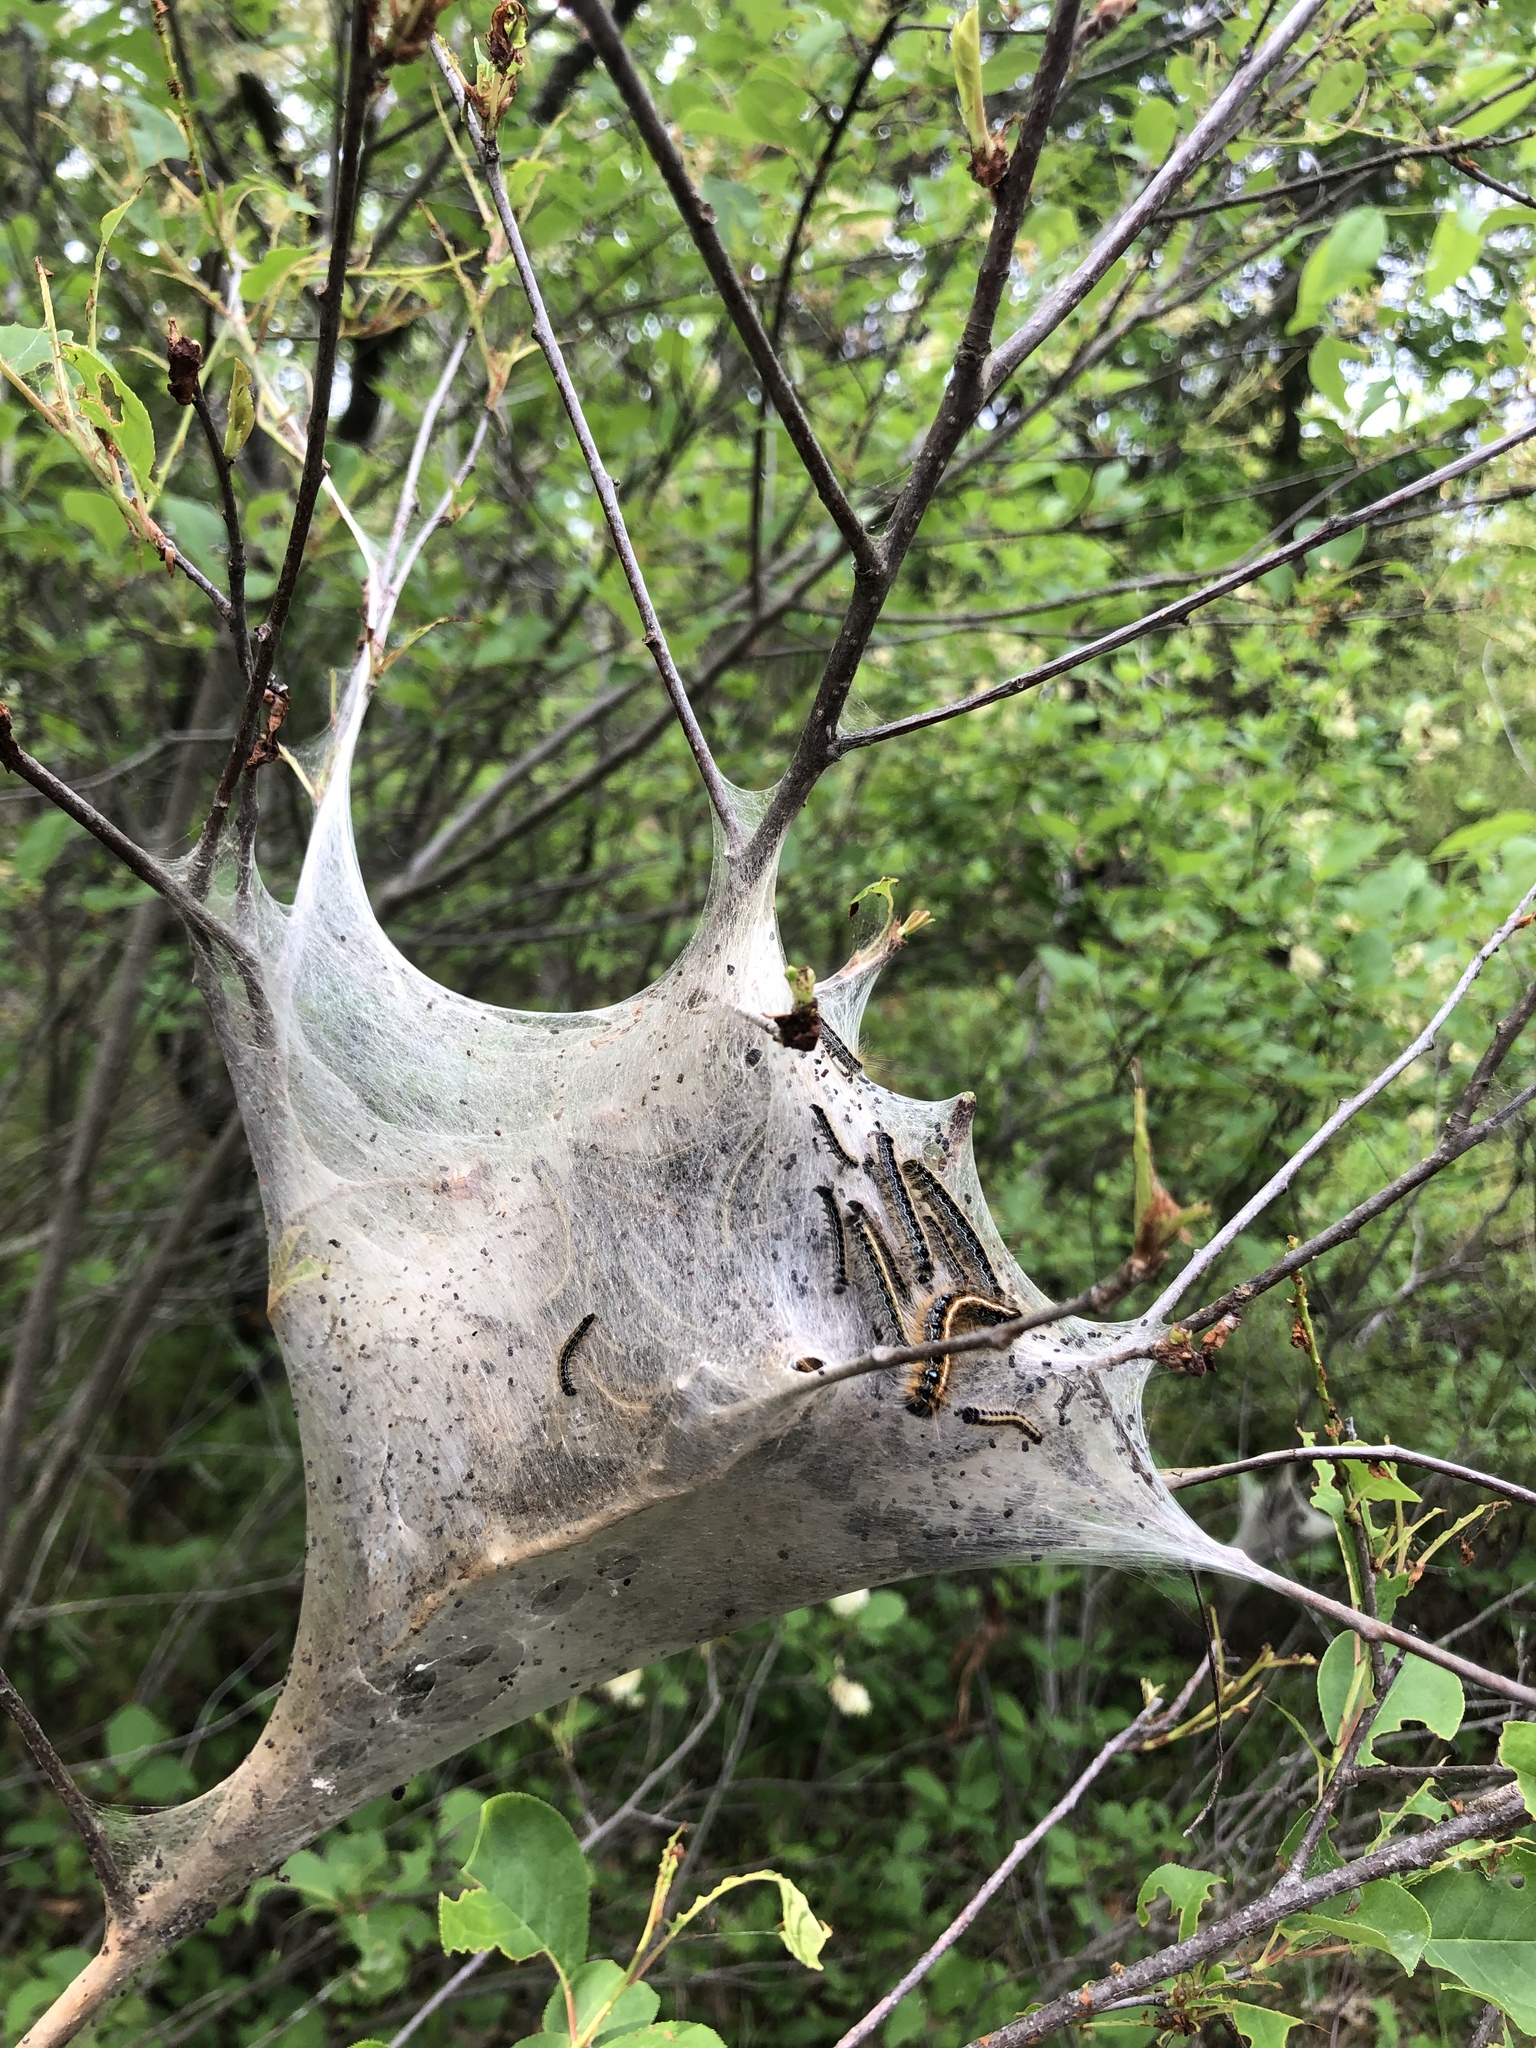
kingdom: Animalia
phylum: Arthropoda
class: Insecta
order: Lepidoptera
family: Lasiocampidae
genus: Malacosoma
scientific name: Malacosoma americana
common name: Eastern tent caterpillar moth
